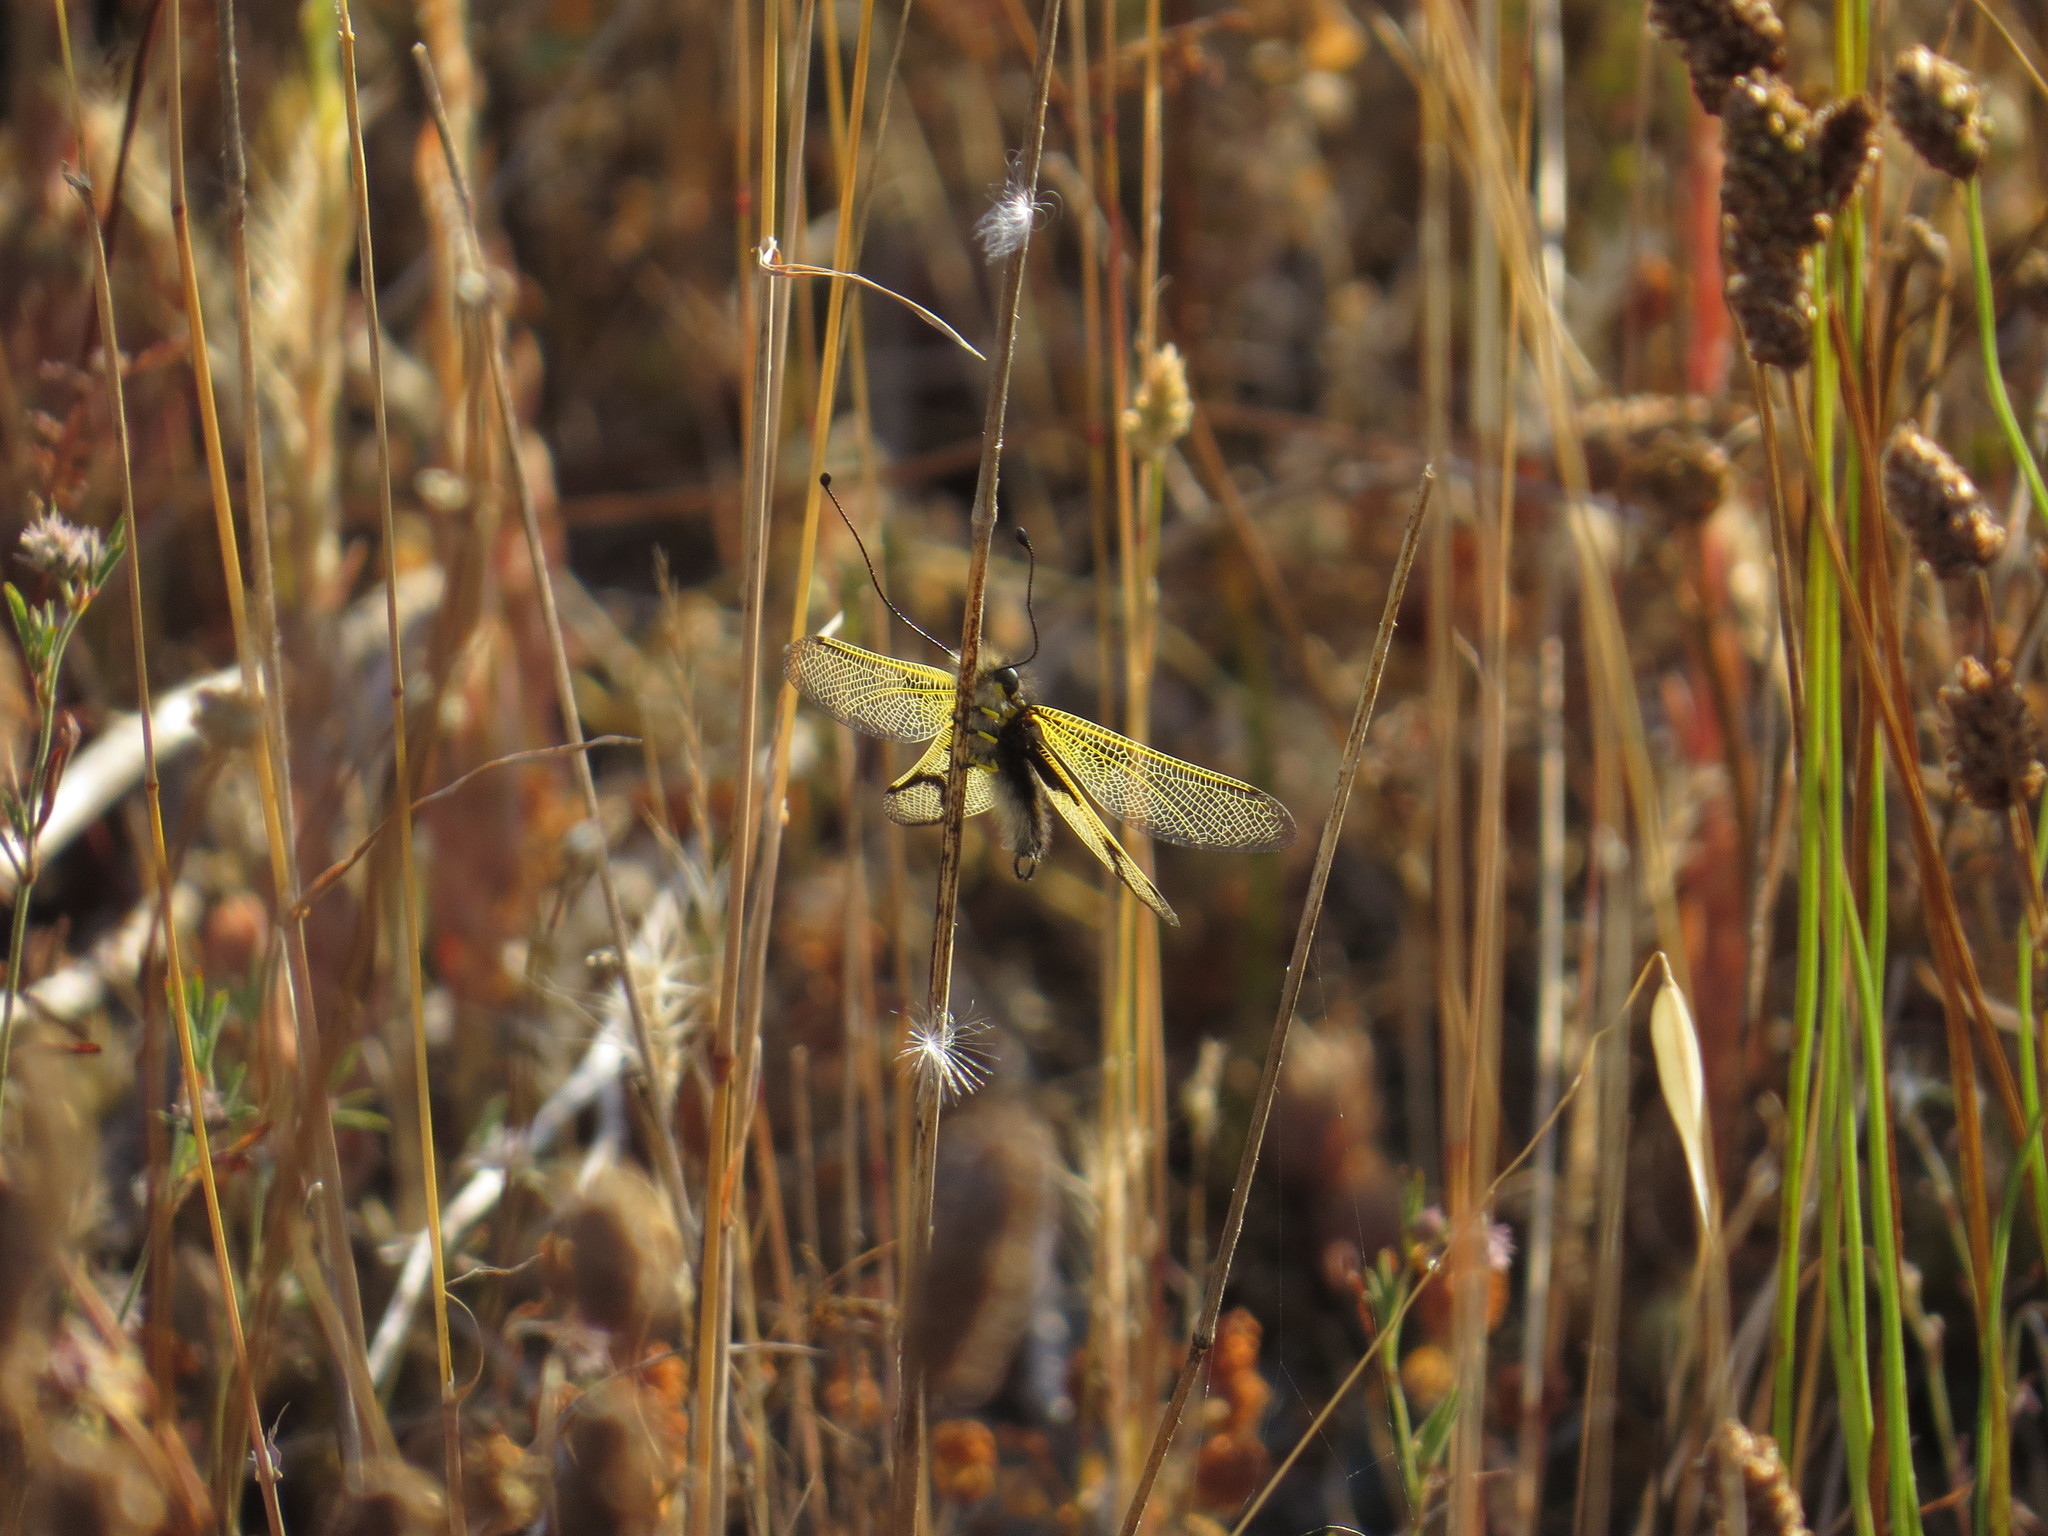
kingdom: Animalia
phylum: Arthropoda
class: Insecta
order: Neuroptera
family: Ascalaphidae
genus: Libelloides
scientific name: Libelloides longicornis
